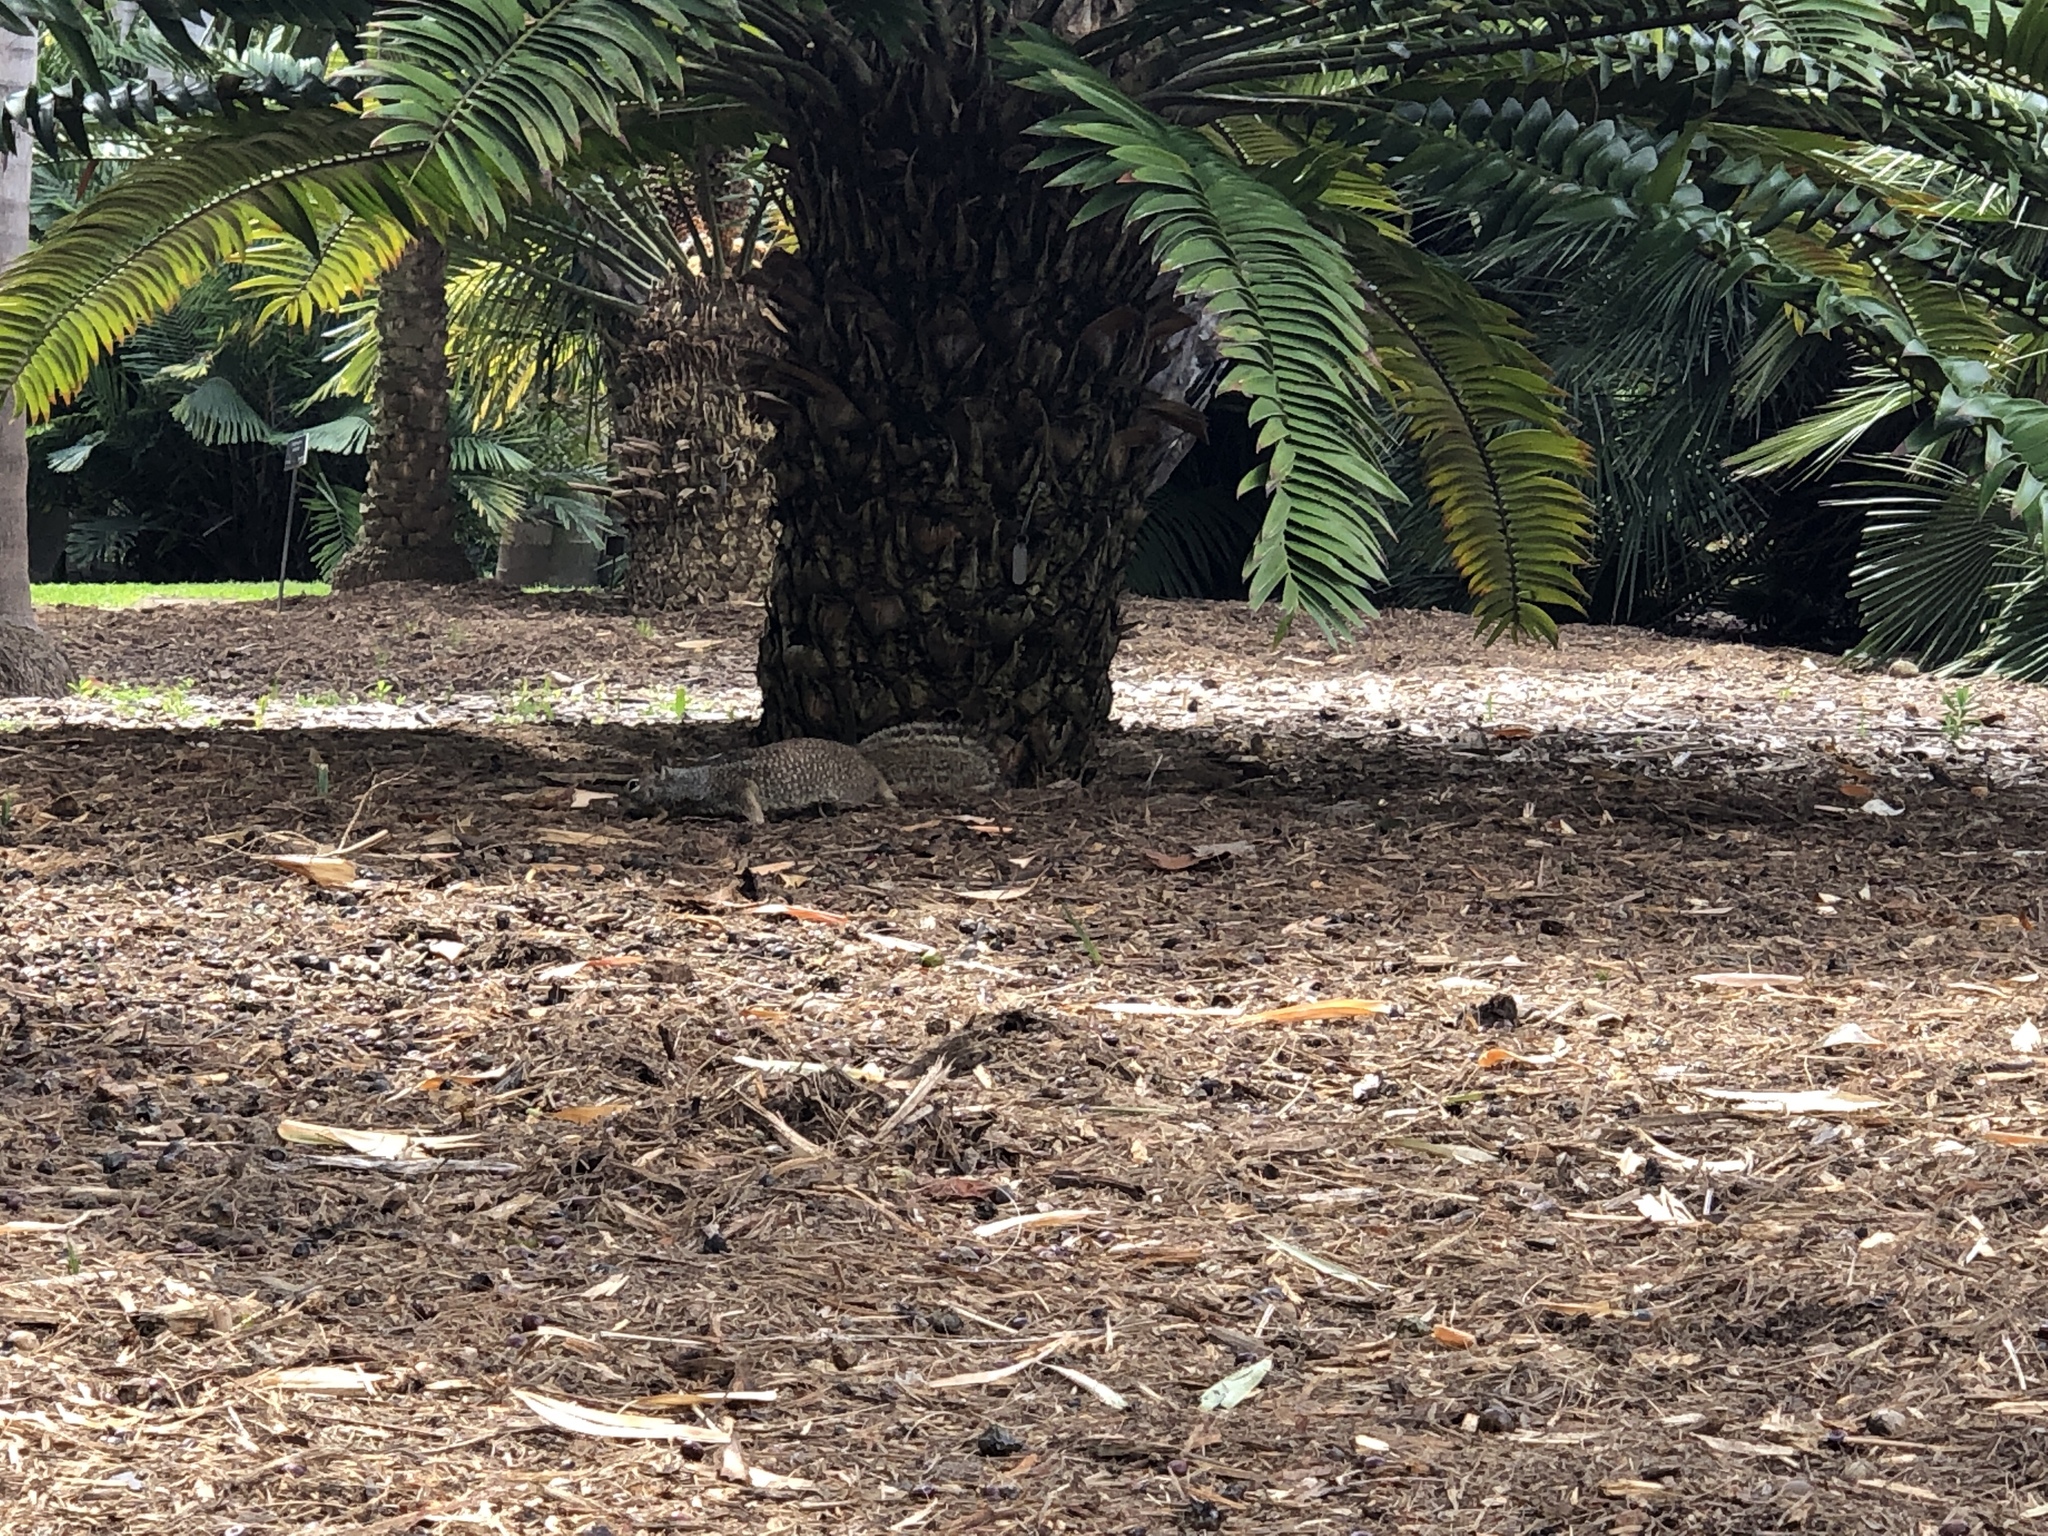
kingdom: Animalia
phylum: Chordata
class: Mammalia
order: Rodentia
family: Sciuridae
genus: Otospermophilus
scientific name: Otospermophilus beecheyi
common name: California ground squirrel
